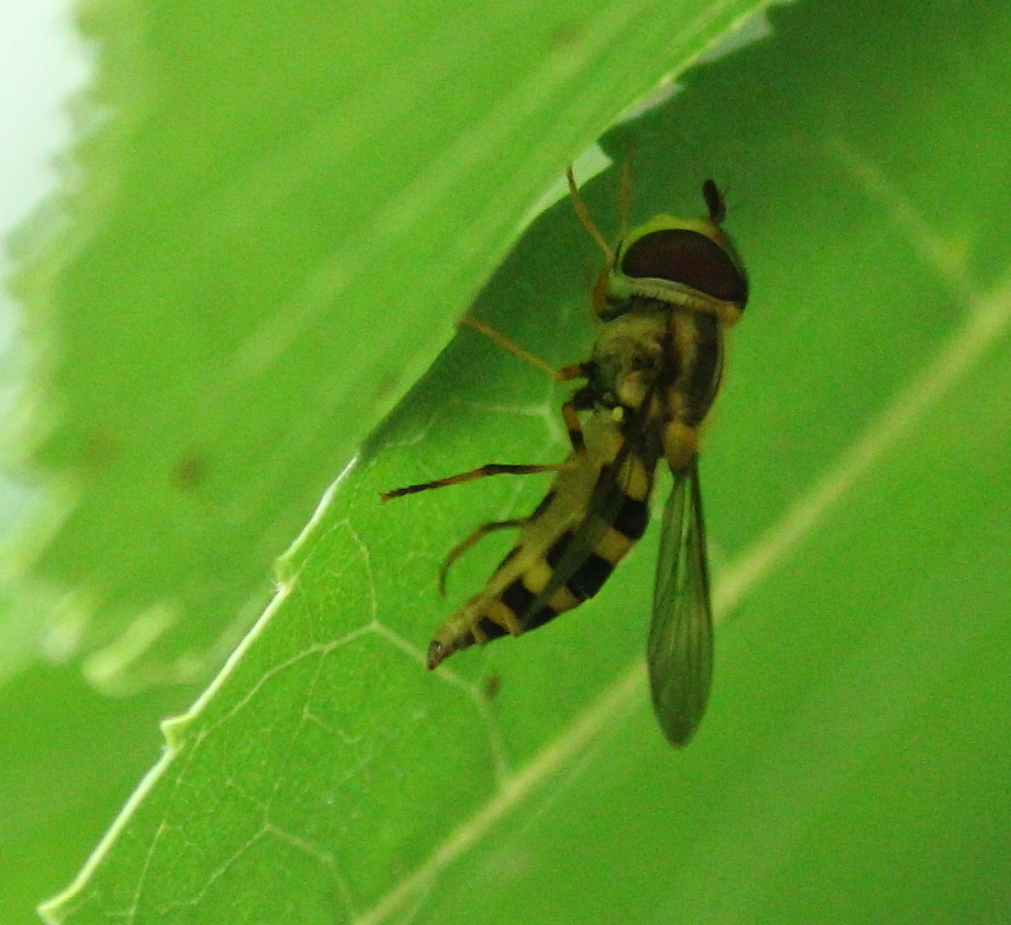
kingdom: Animalia
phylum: Arthropoda
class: Insecta
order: Diptera
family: Syrphidae
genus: Syrphus
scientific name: Syrphus knabi
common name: Eastern flower fly
